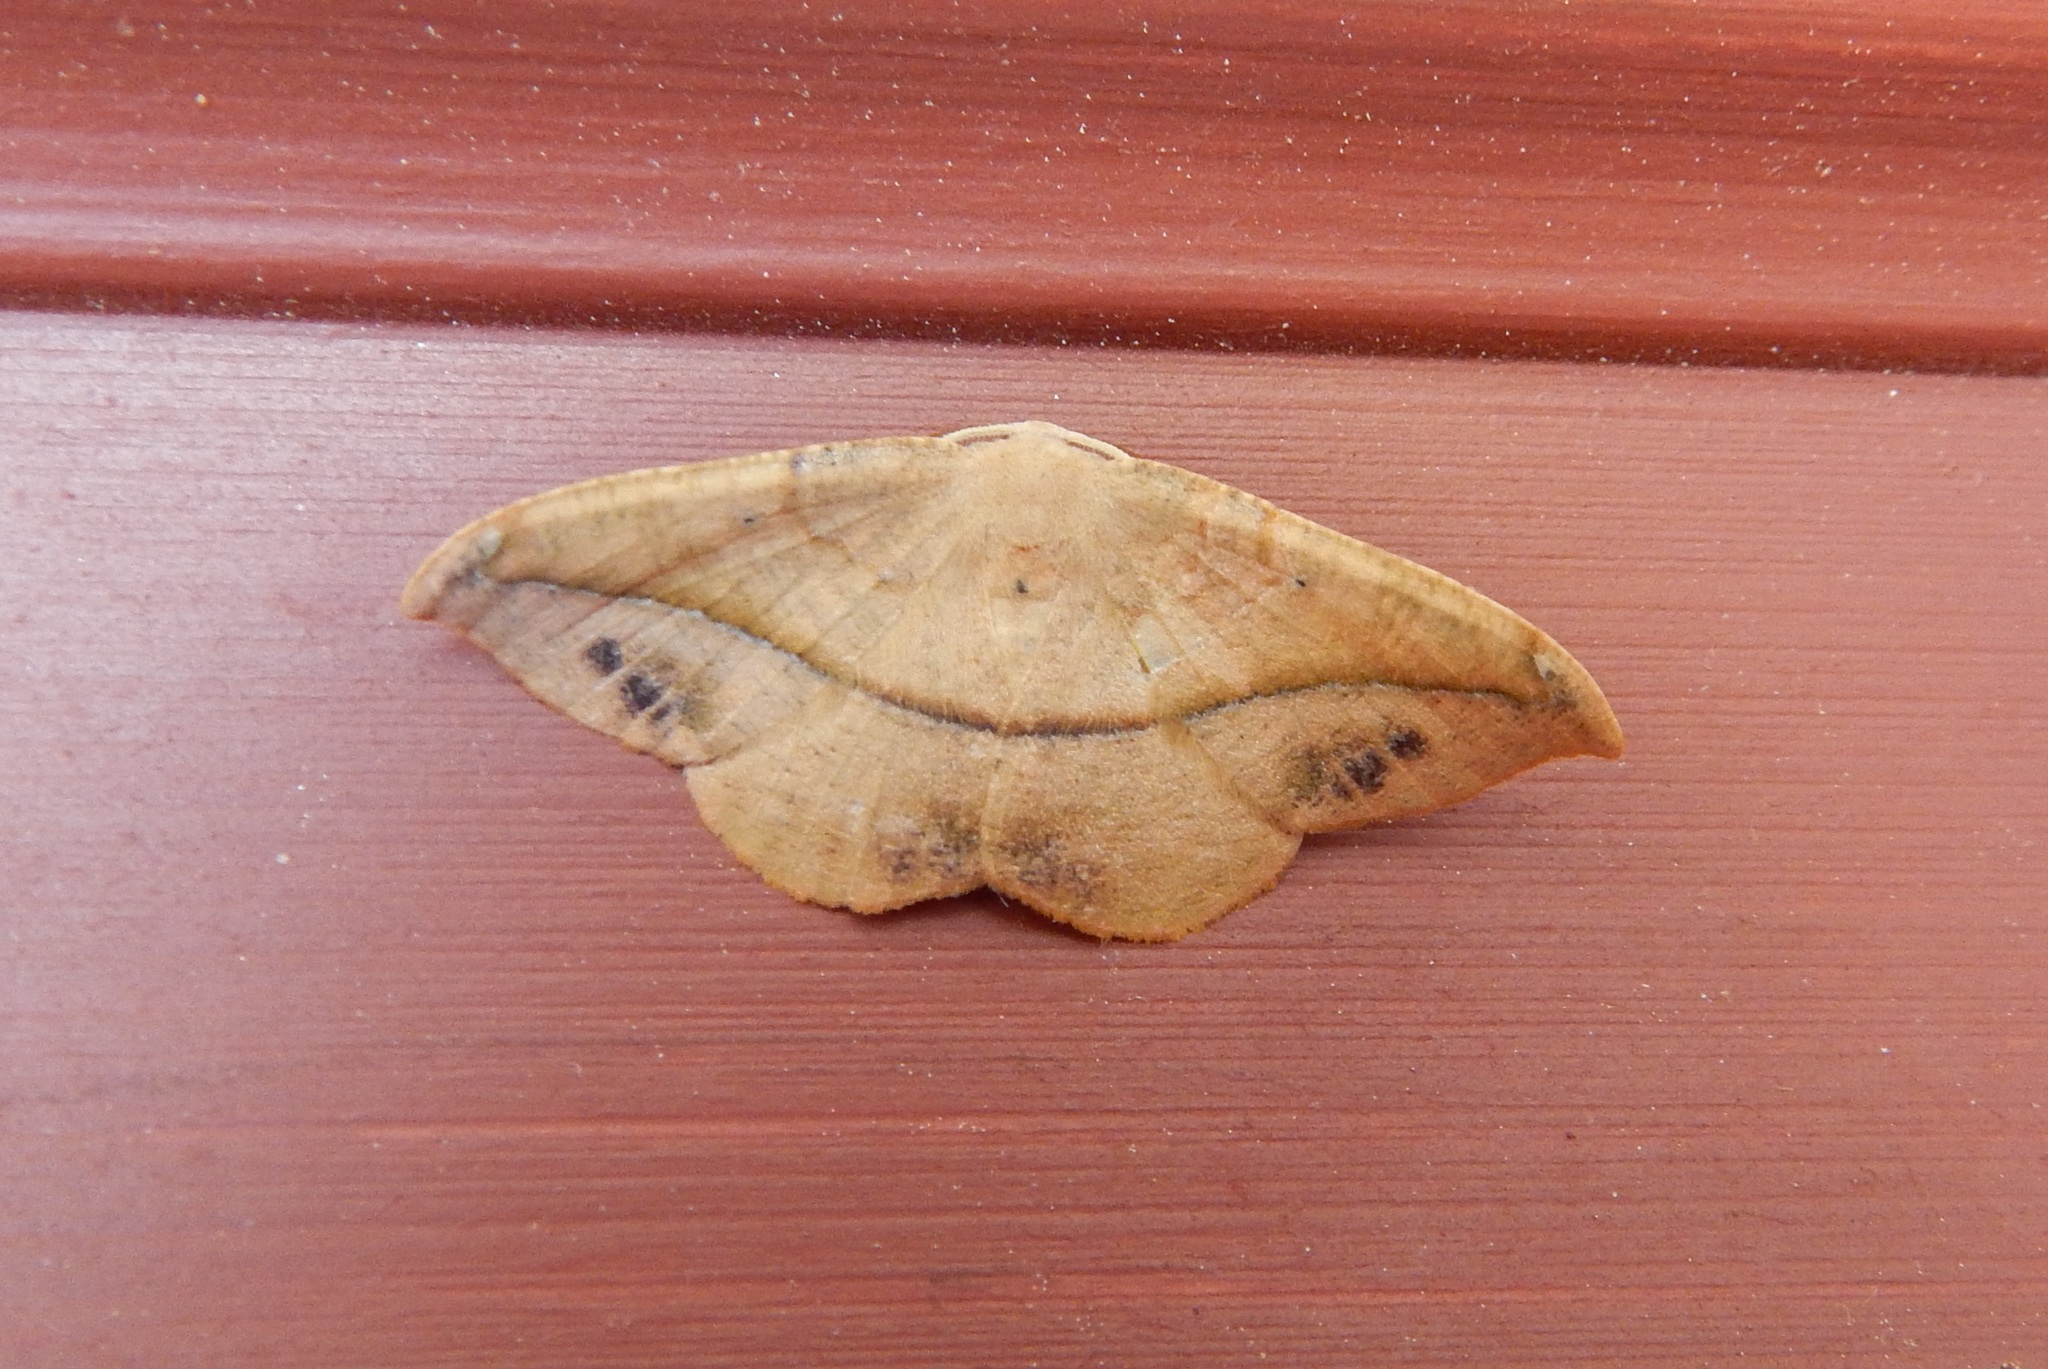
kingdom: Animalia
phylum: Arthropoda
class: Insecta
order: Lepidoptera
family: Geometridae
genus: Patalene
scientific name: Patalene olyzonaria
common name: Juniper geometer moth
